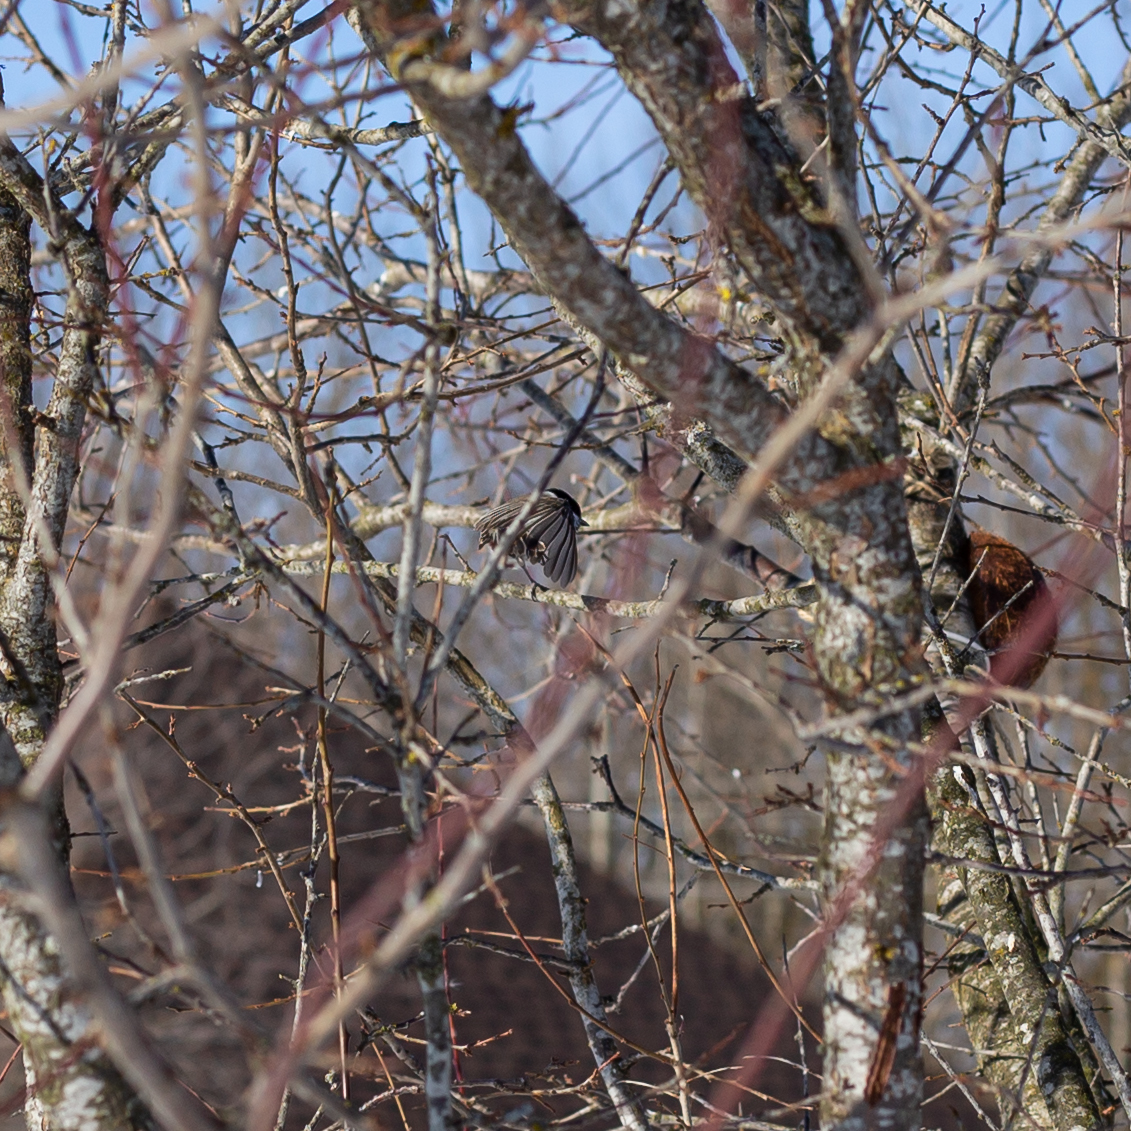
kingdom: Animalia
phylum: Chordata
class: Aves
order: Passeriformes
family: Paridae
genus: Poecile
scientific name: Poecile montanus
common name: Willow tit
